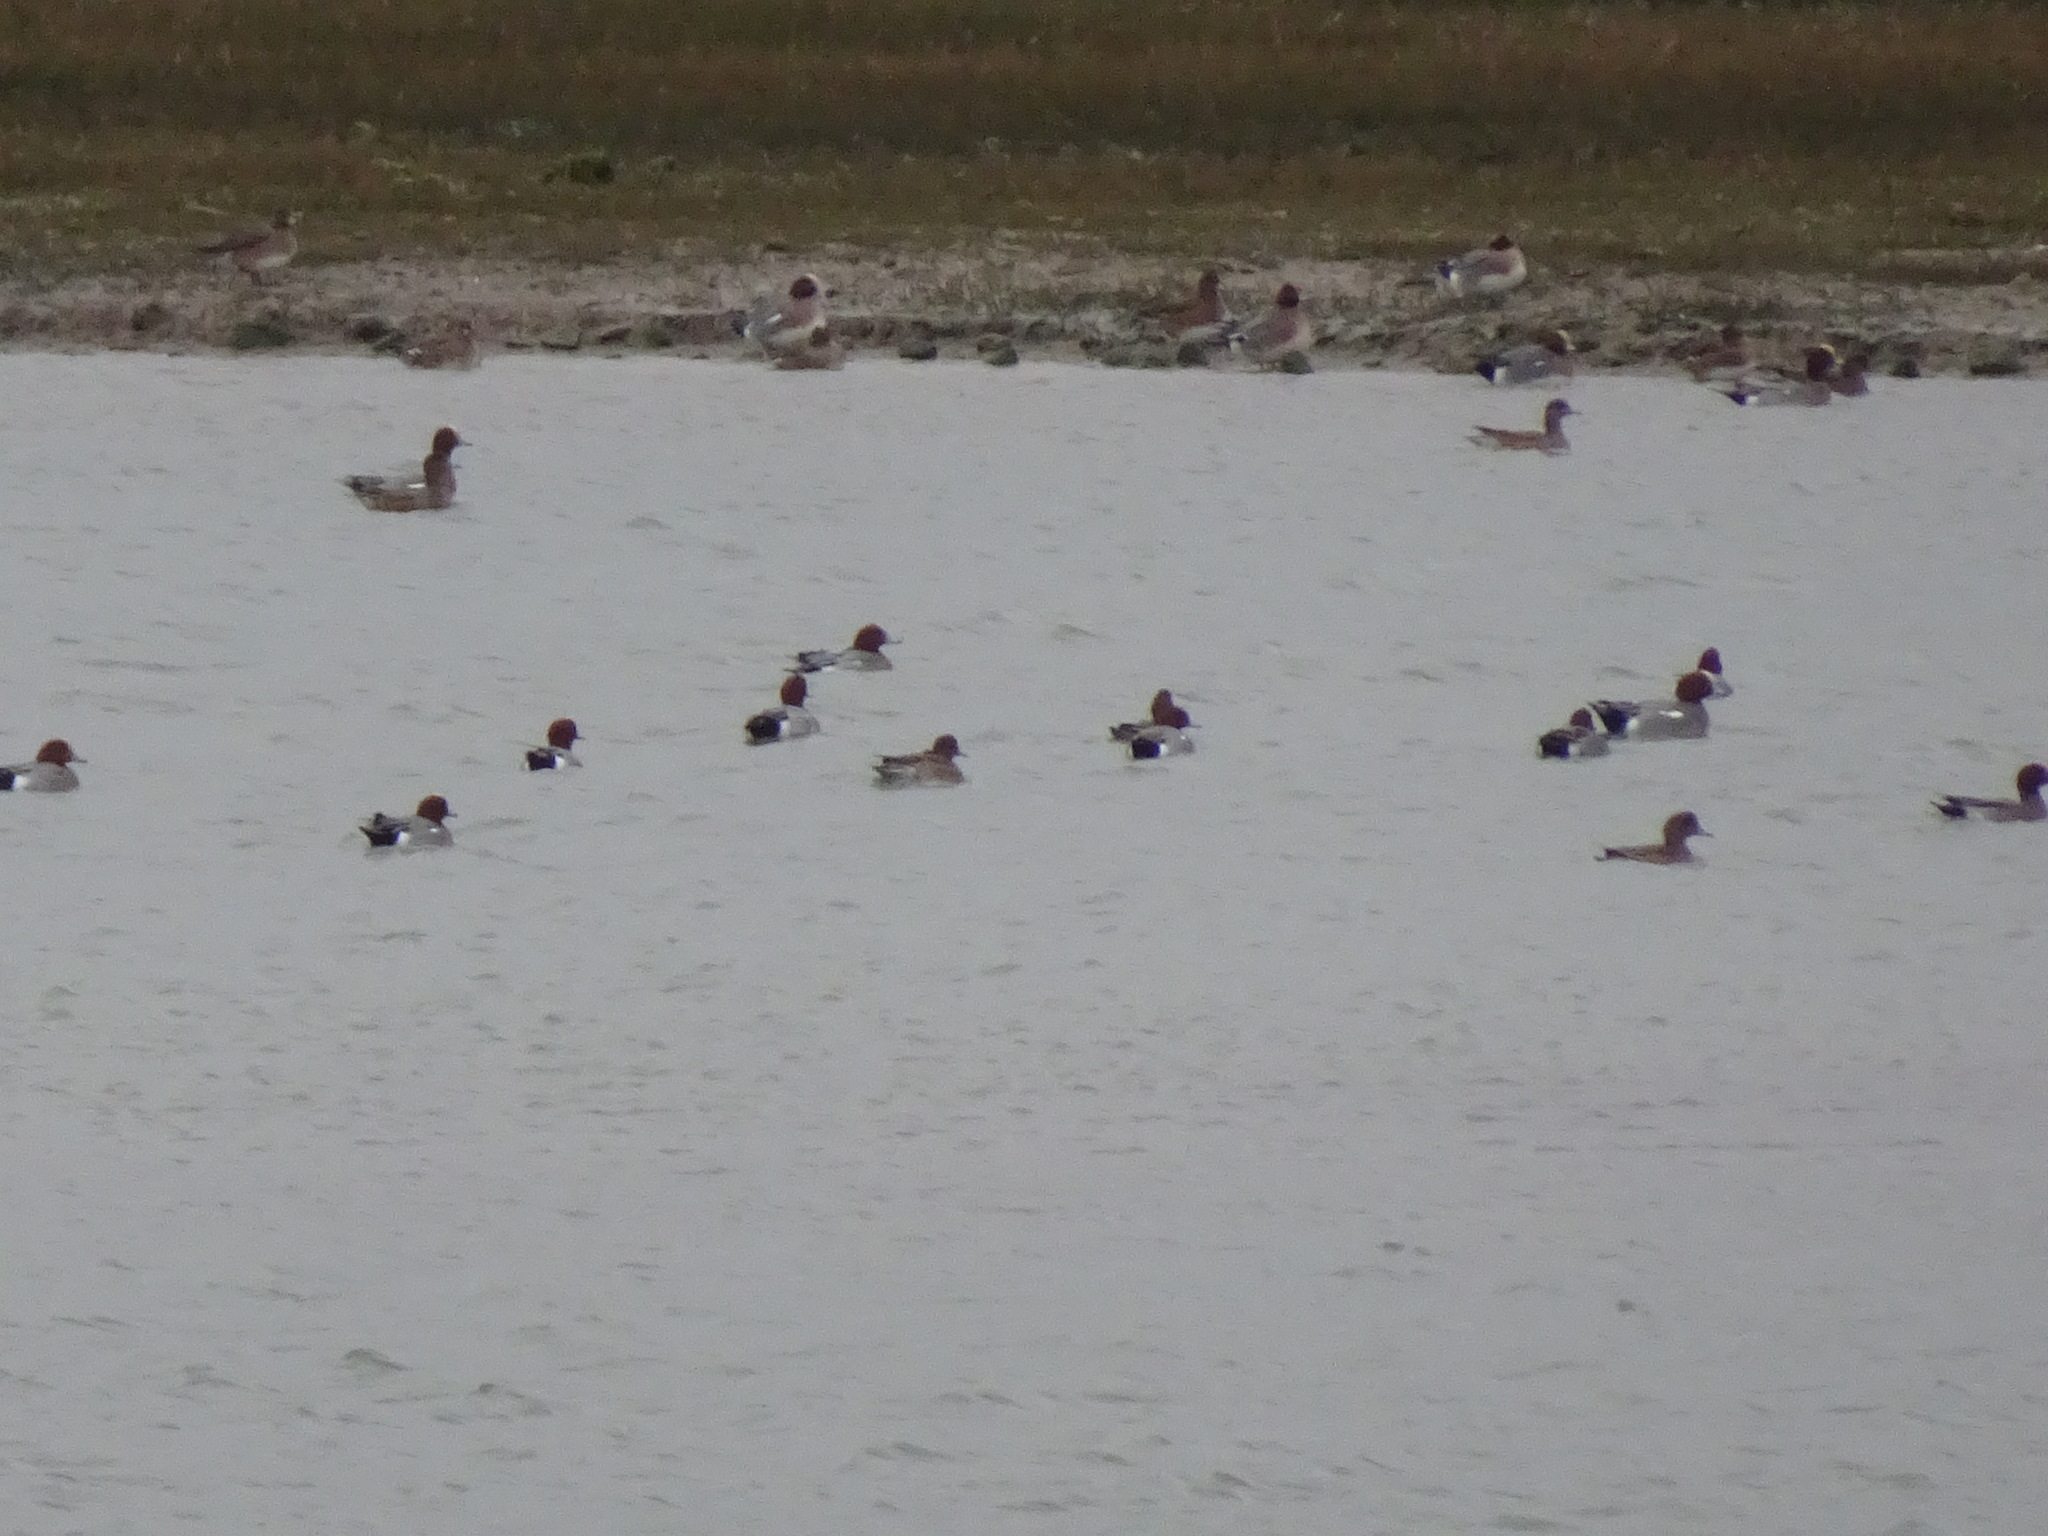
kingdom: Animalia
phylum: Chordata
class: Aves
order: Anseriformes
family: Anatidae
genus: Mareca
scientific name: Mareca penelope
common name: Eurasian wigeon
